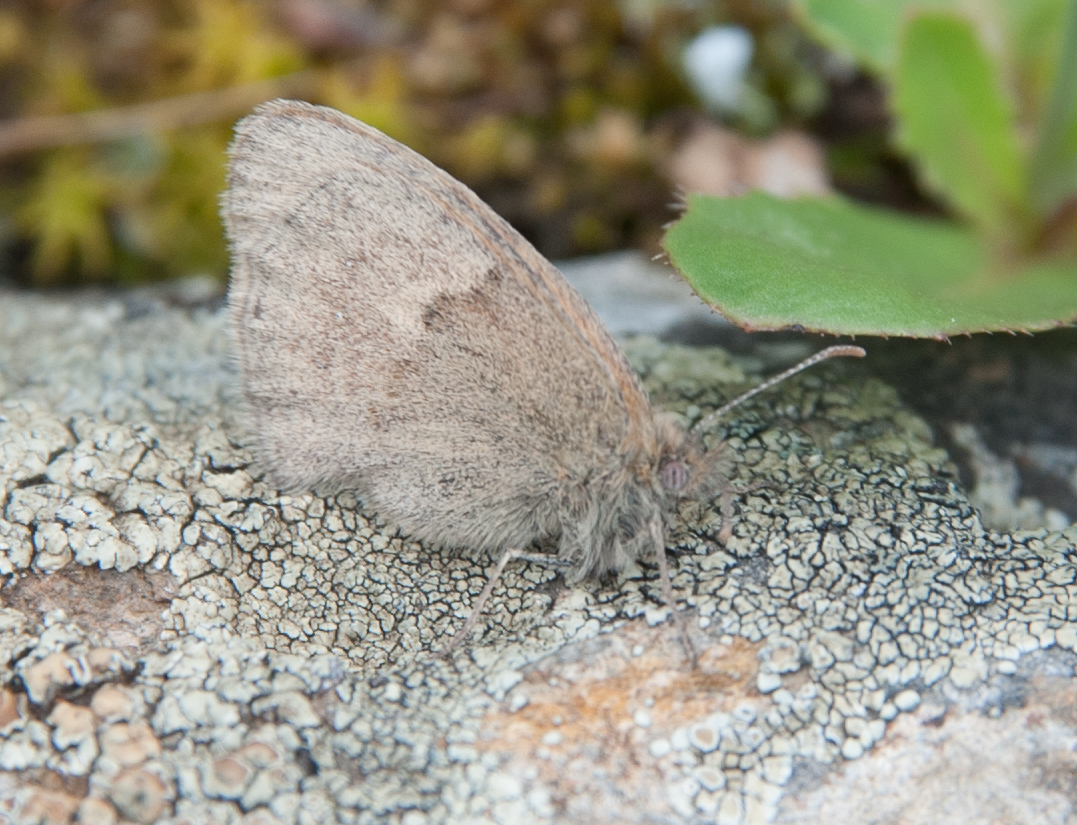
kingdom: Animalia
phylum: Arthropoda
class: Insecta
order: Lepidoptera
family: Nymphalidae
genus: Coenonympha
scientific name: Coenonympha pamphilus
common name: Small heath
